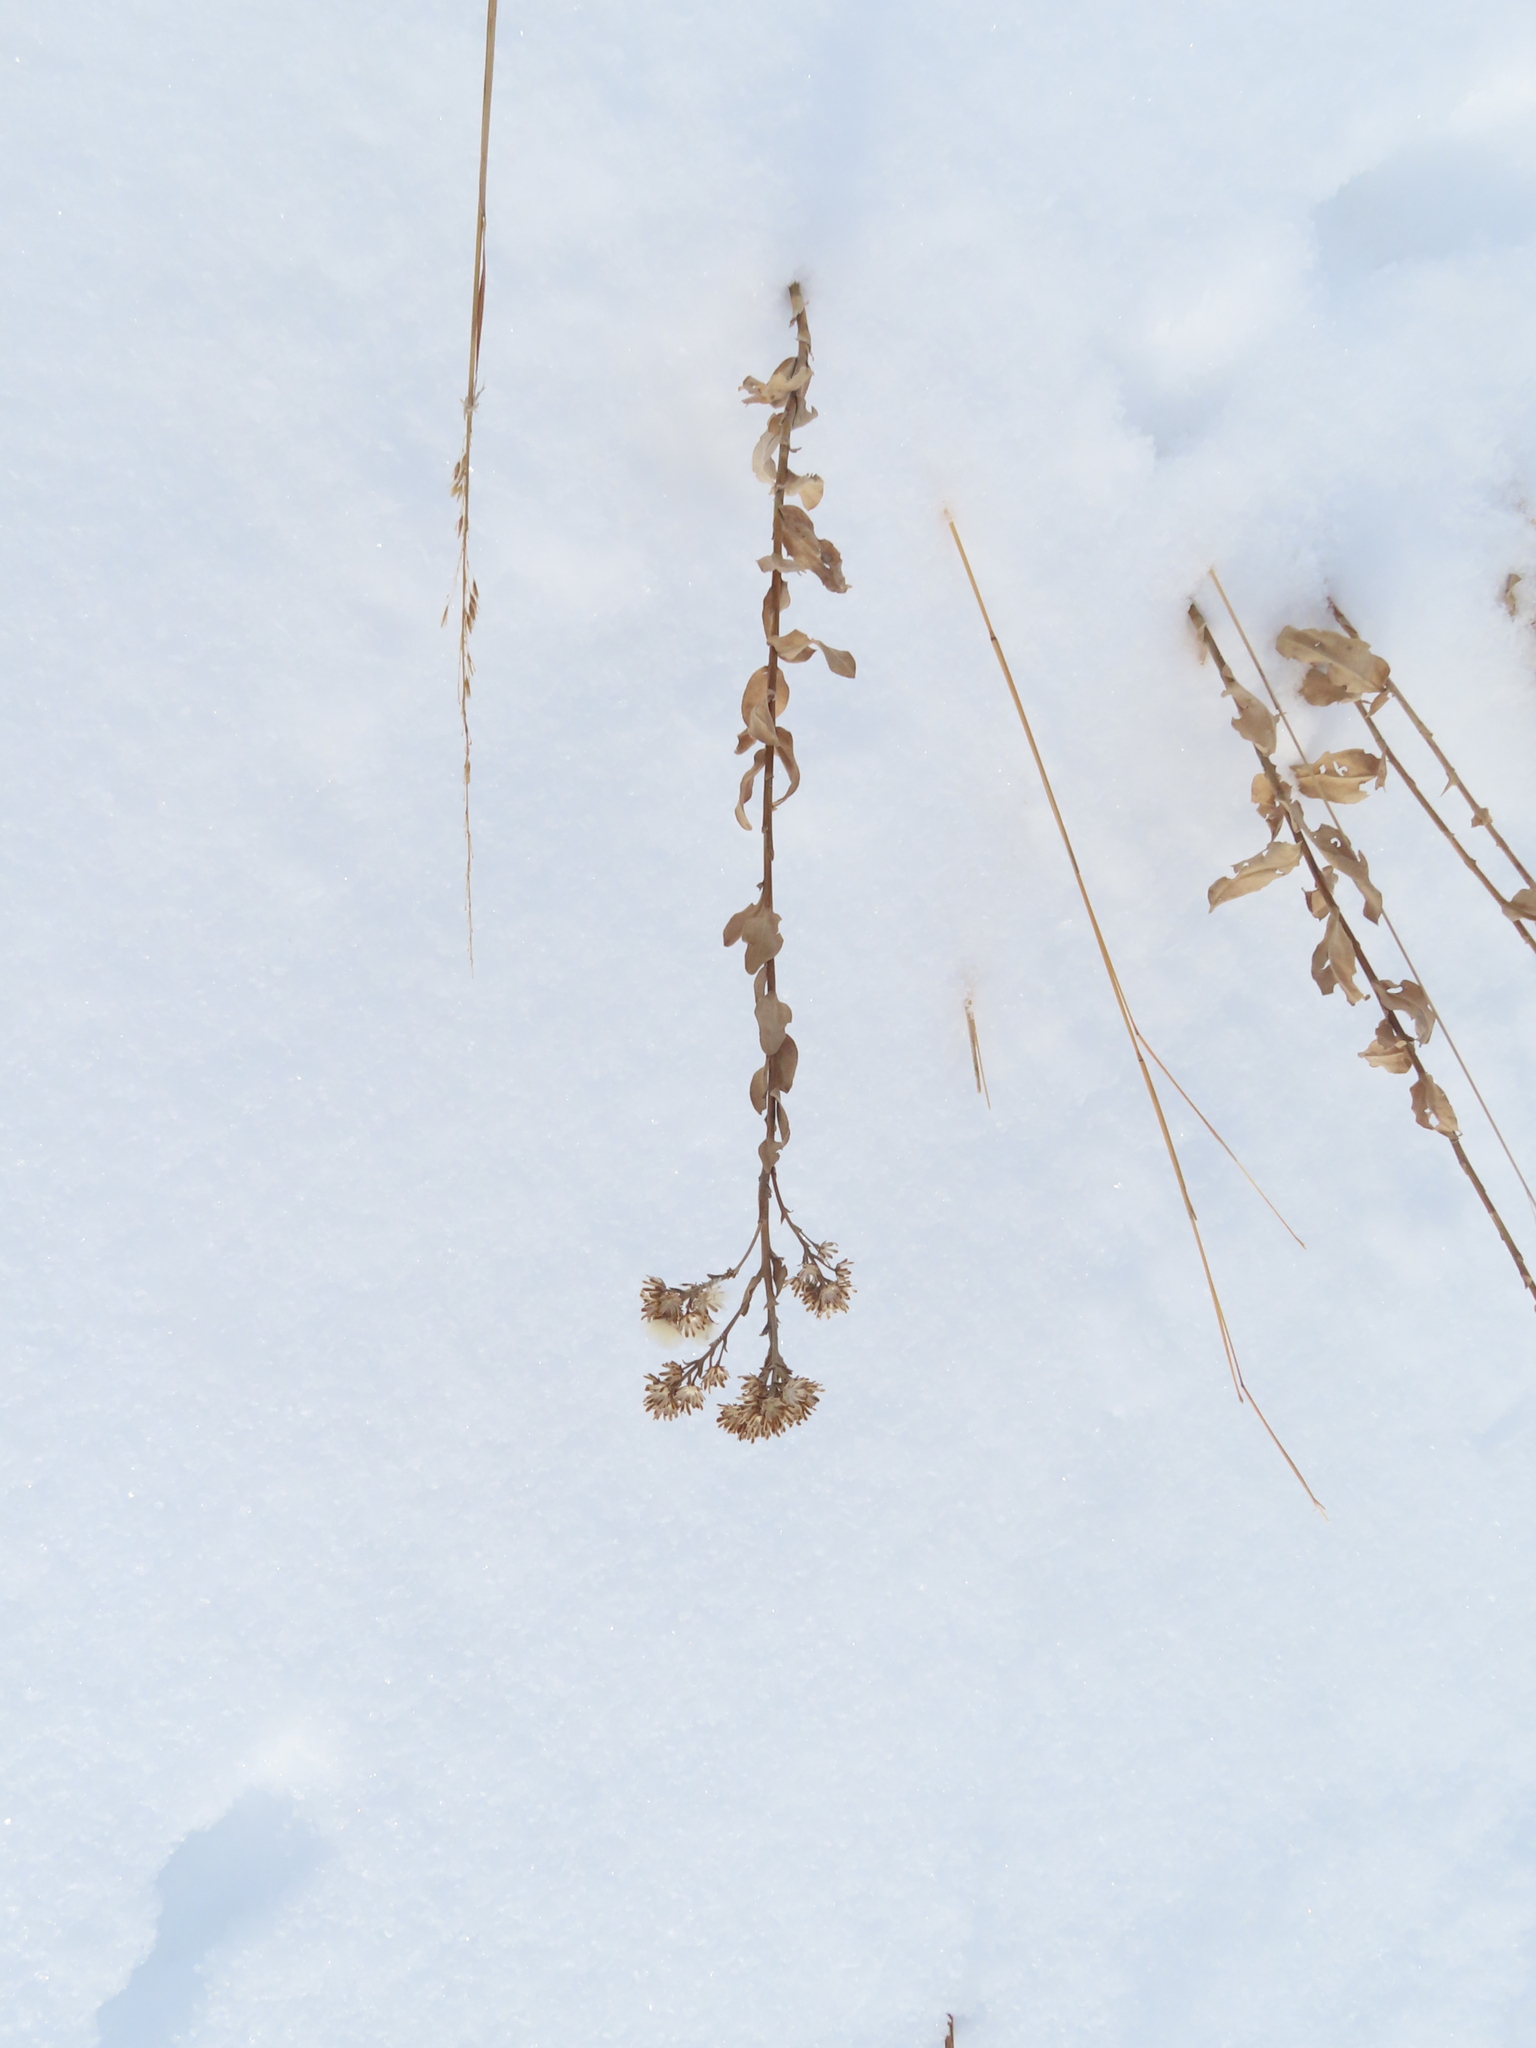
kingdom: Plantae
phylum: Tracheophyta
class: Magnoliopsida
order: Asterales
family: Asteraceae
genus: Solidago
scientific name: Solidago rigida
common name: Rigid goldenrod
